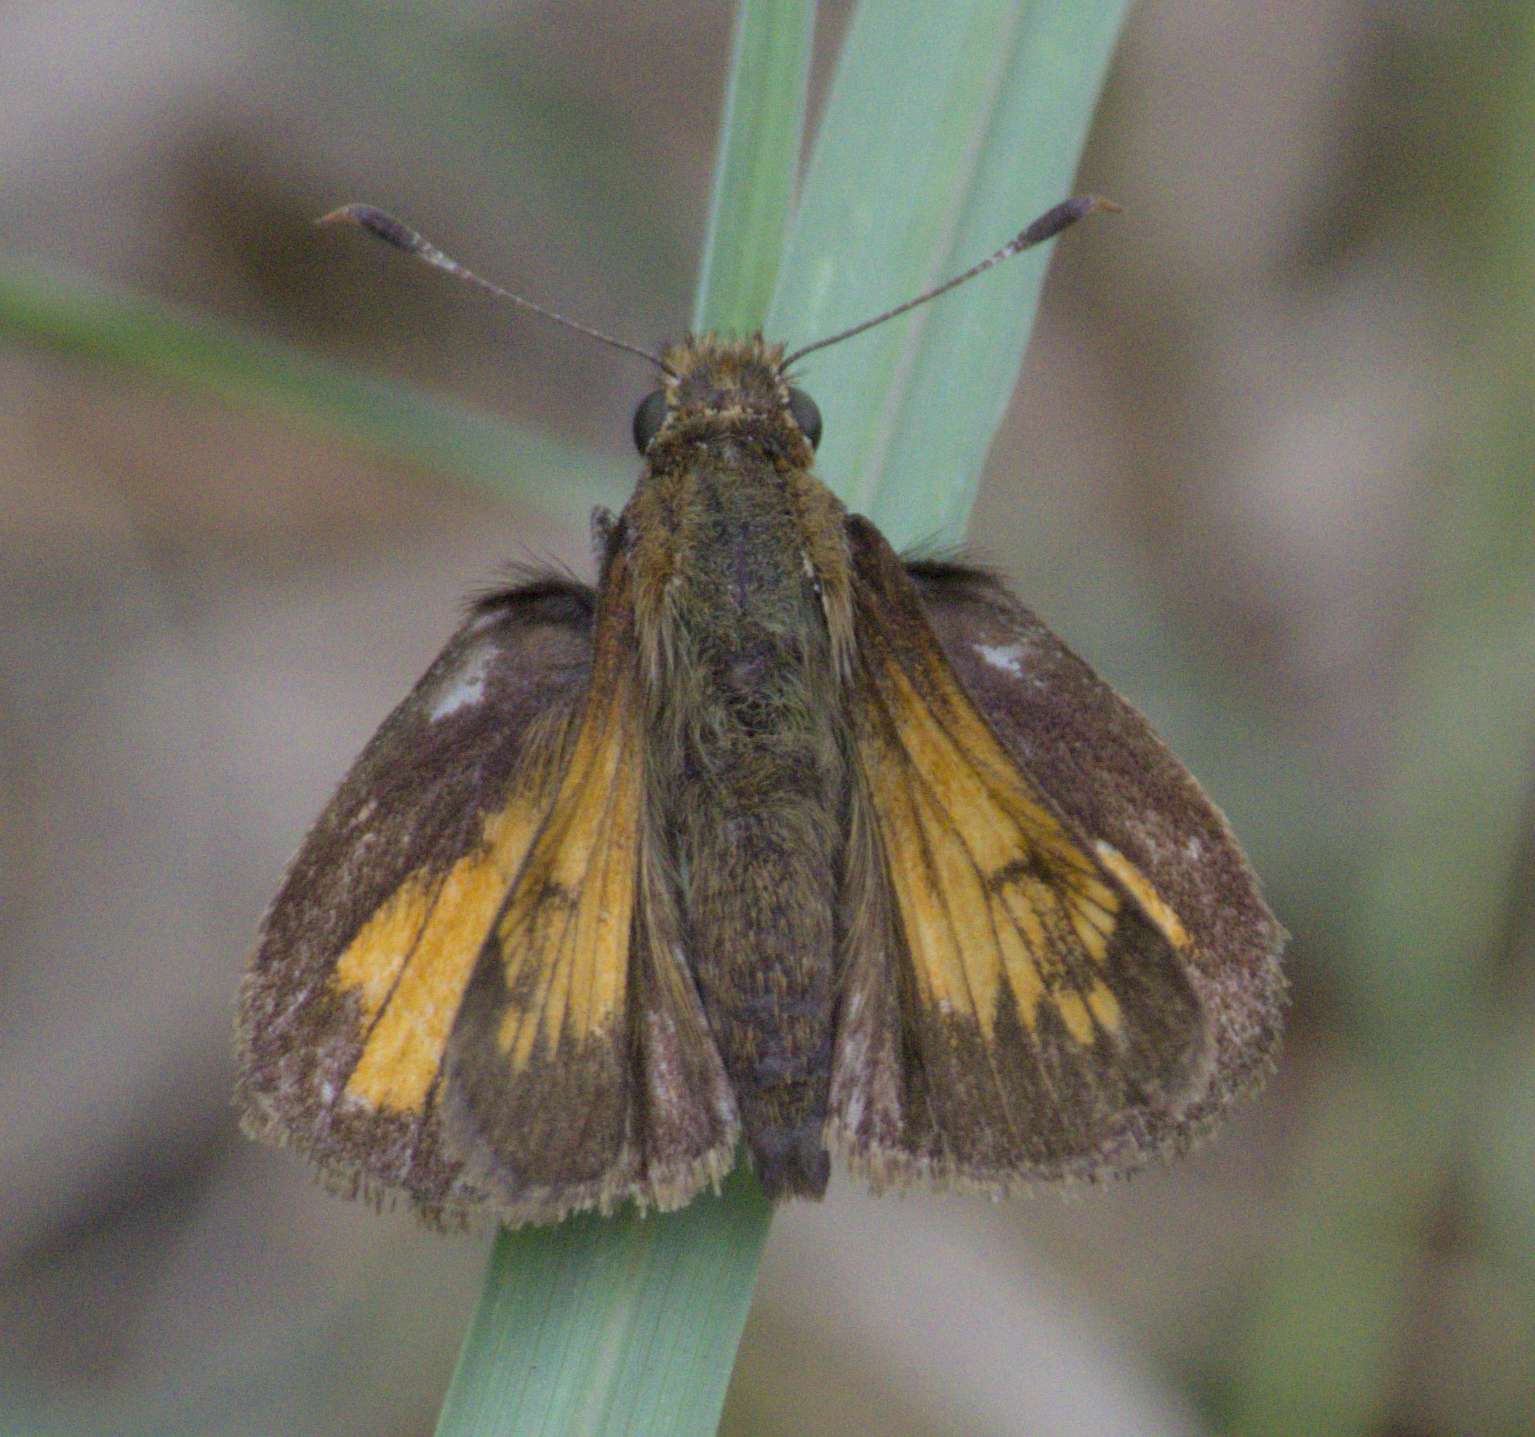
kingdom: Animalia
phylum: Arthropoda
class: Insecta
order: Lepidoptera
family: Hesperiidae
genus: Lon
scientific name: Lon hobomok
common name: Hobomok skipper
